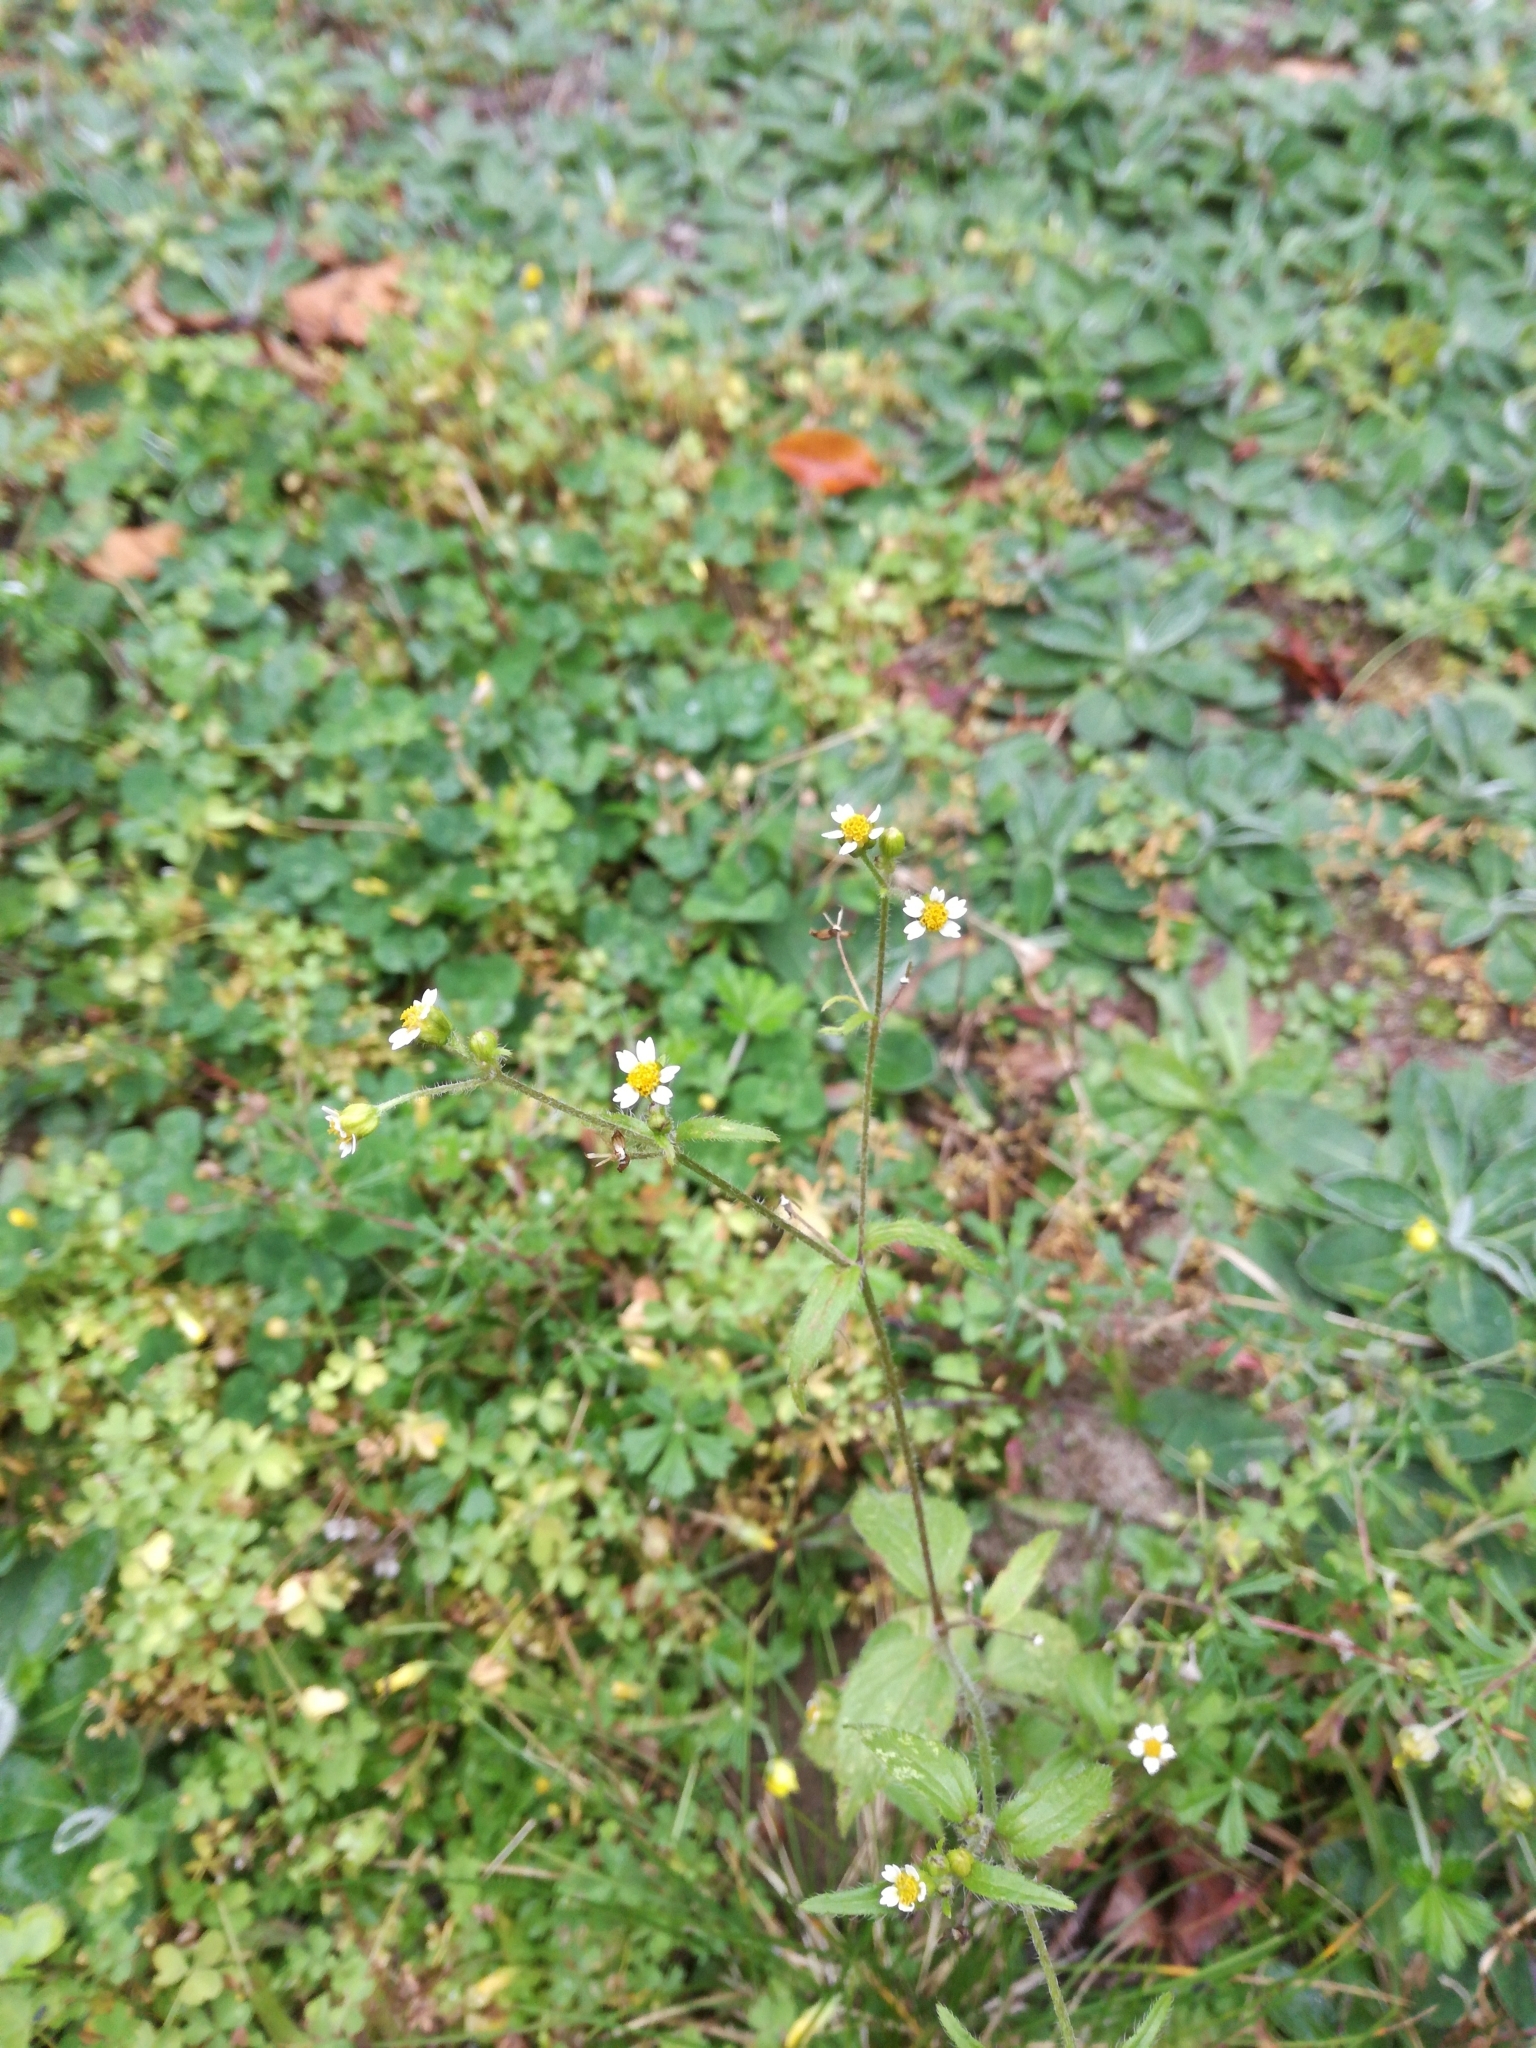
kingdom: Plantae
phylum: Tracheophyta
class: Magnoliopsida
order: Asterales
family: Asteraceae
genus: Galinsoga
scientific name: Galinsoga quadriradiata
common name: Shaggy soldier
